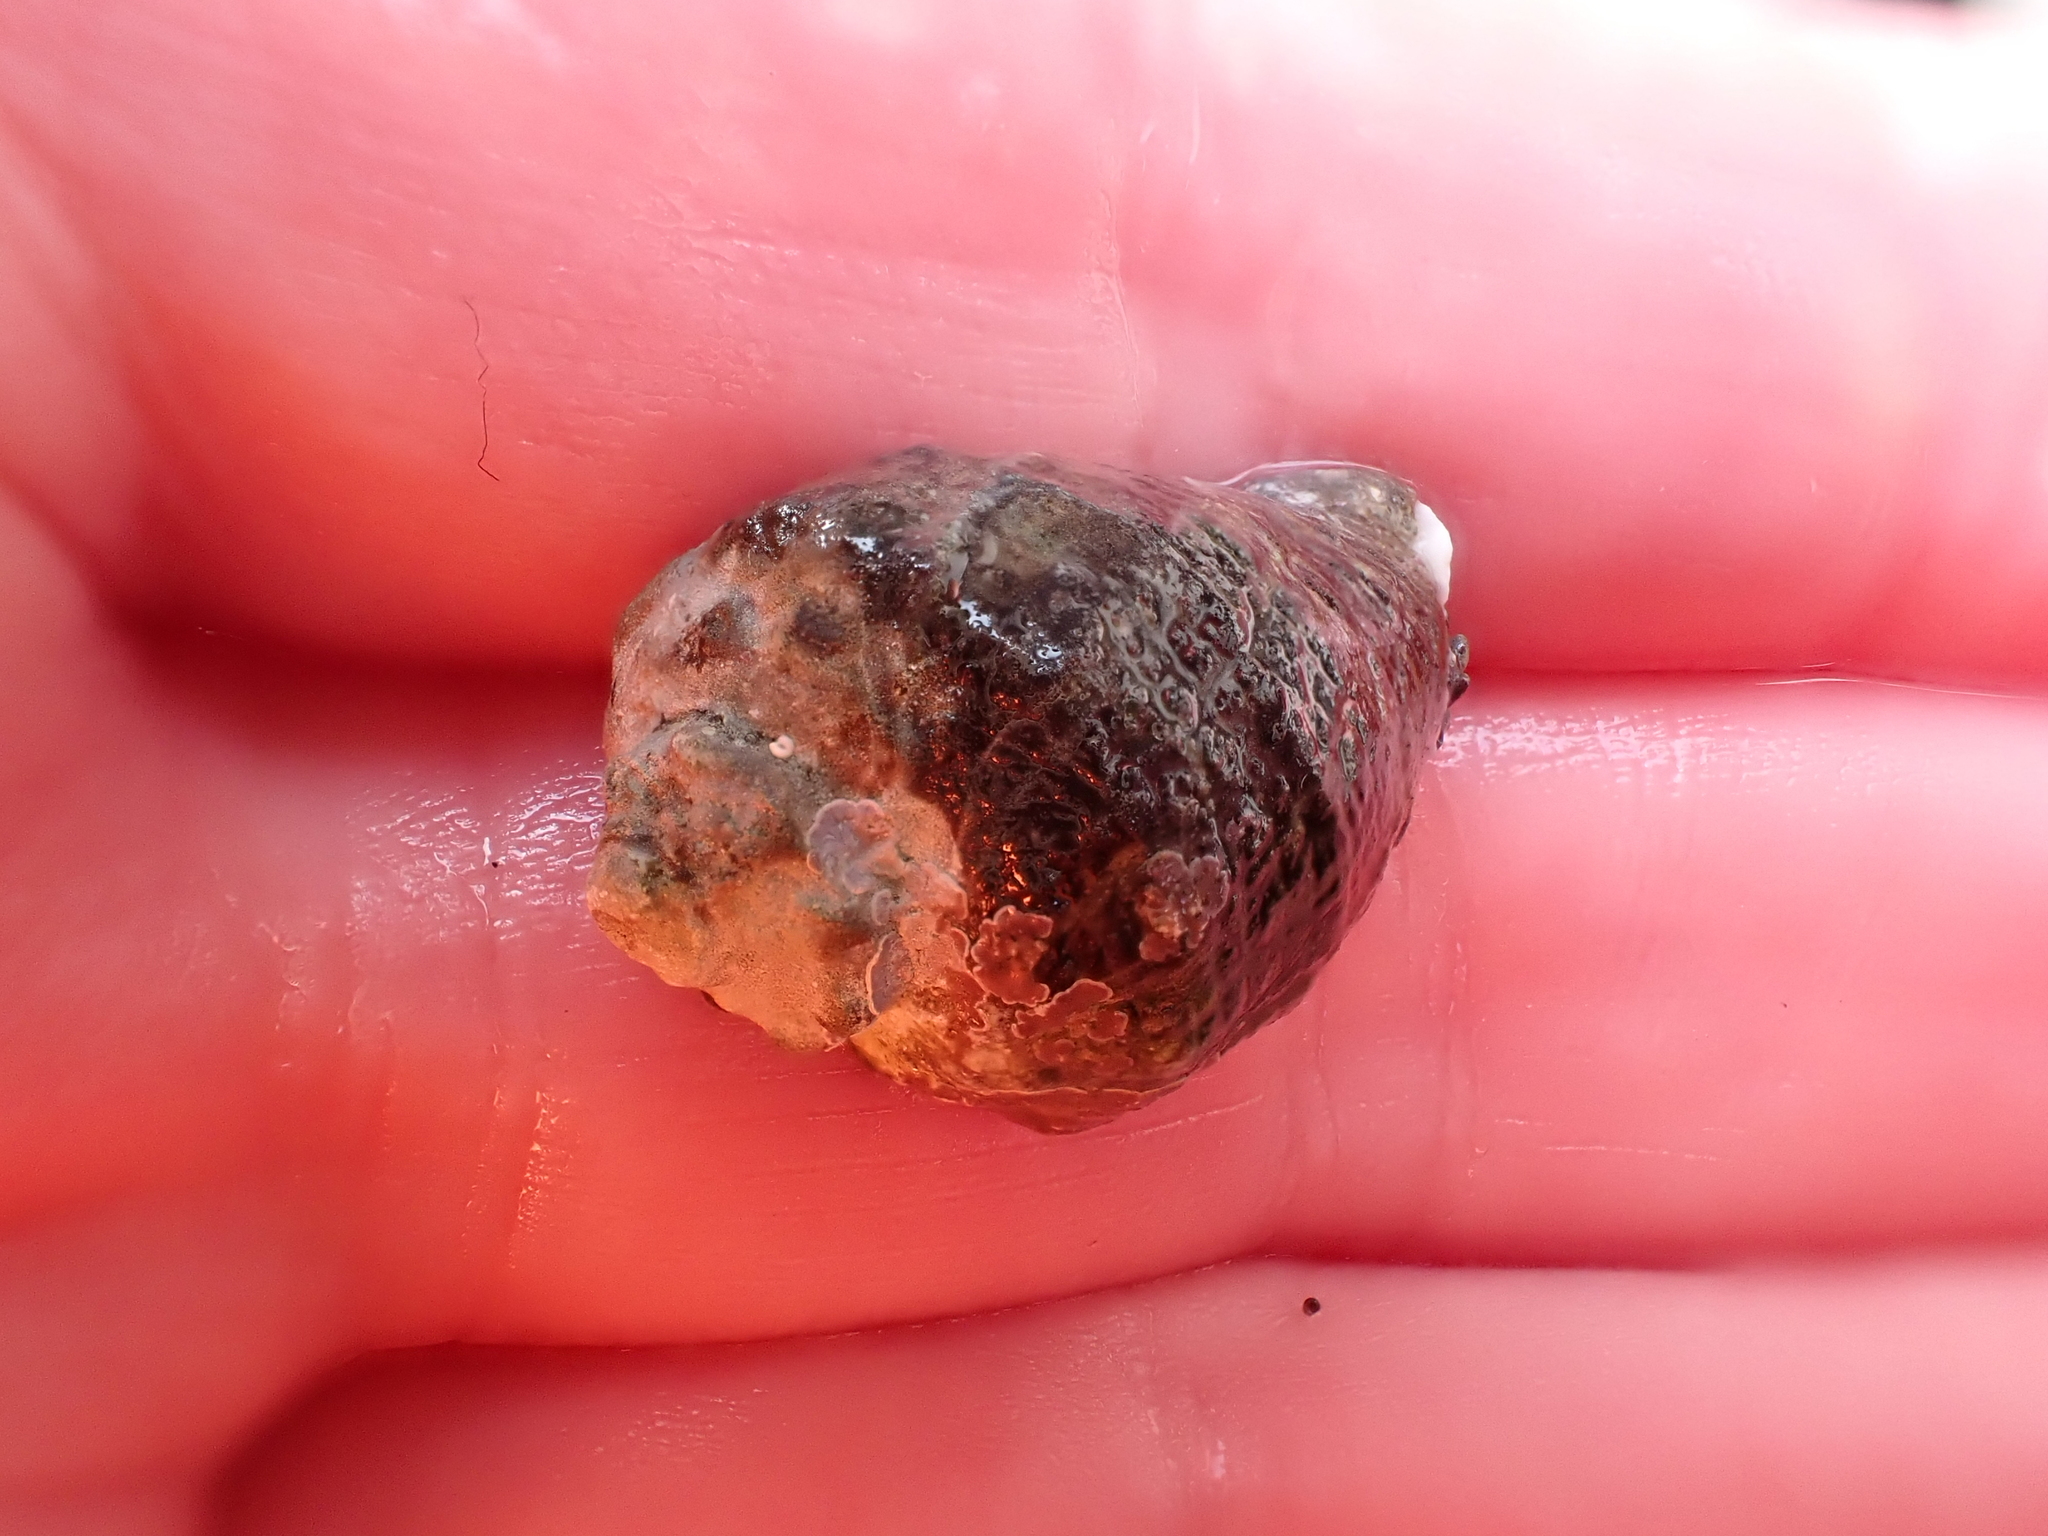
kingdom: Animalia
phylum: Mollusca
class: Gastropoda
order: Neogastropoda
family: Muricidae
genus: Haustrum
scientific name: Haustrum haustorium
